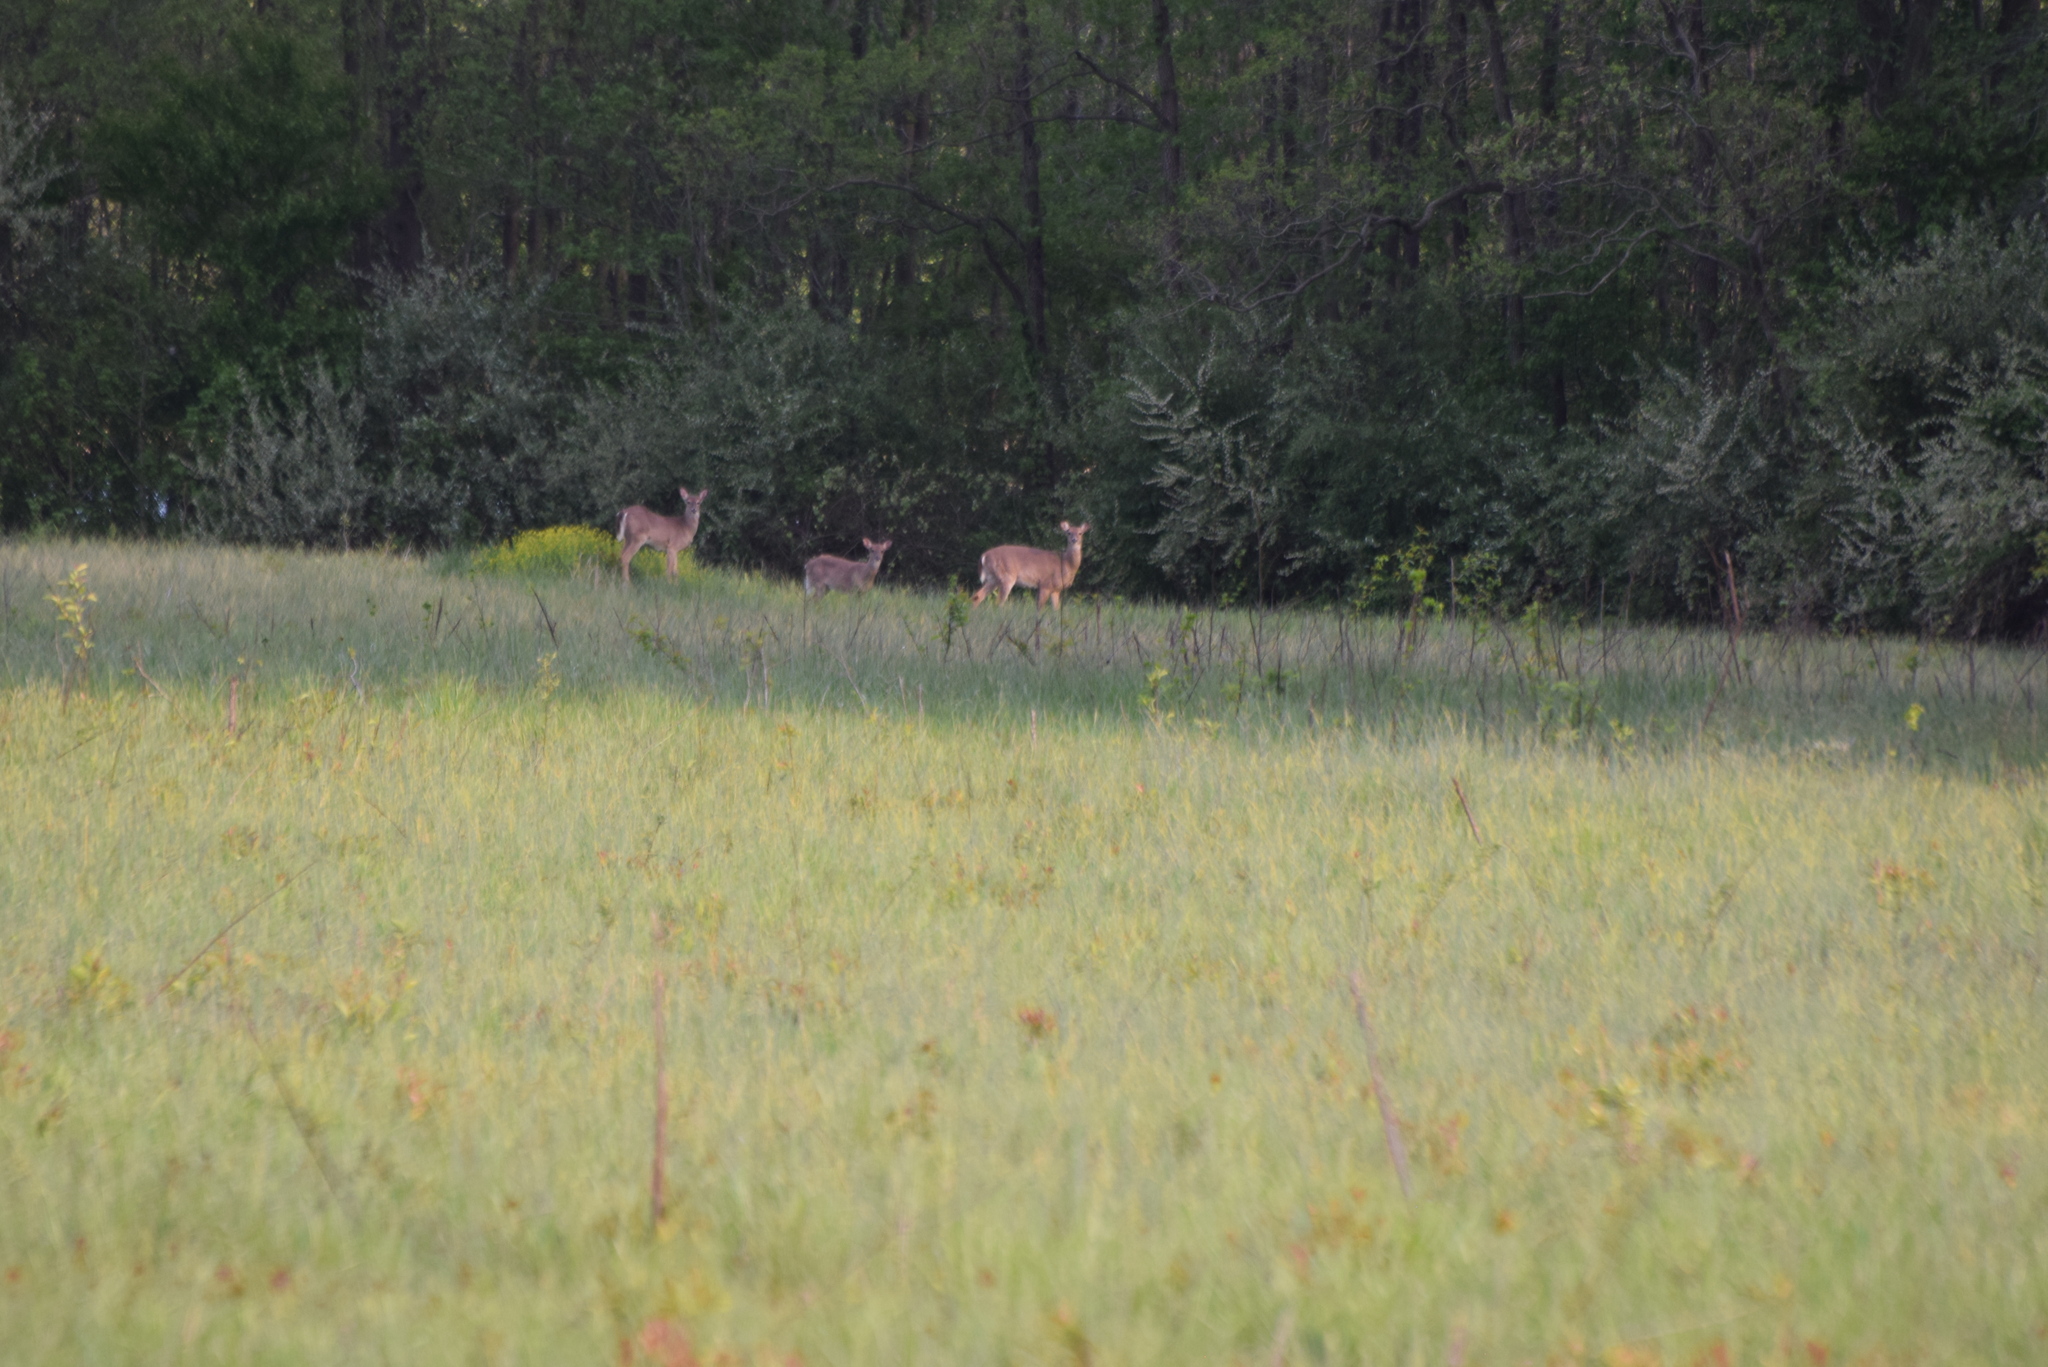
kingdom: Animalia
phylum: Chordata
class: Mammalia
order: Artiodactyla
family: Cervidae
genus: Odocoileus
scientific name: Odocoileus virginianus
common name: White-tailed deer
